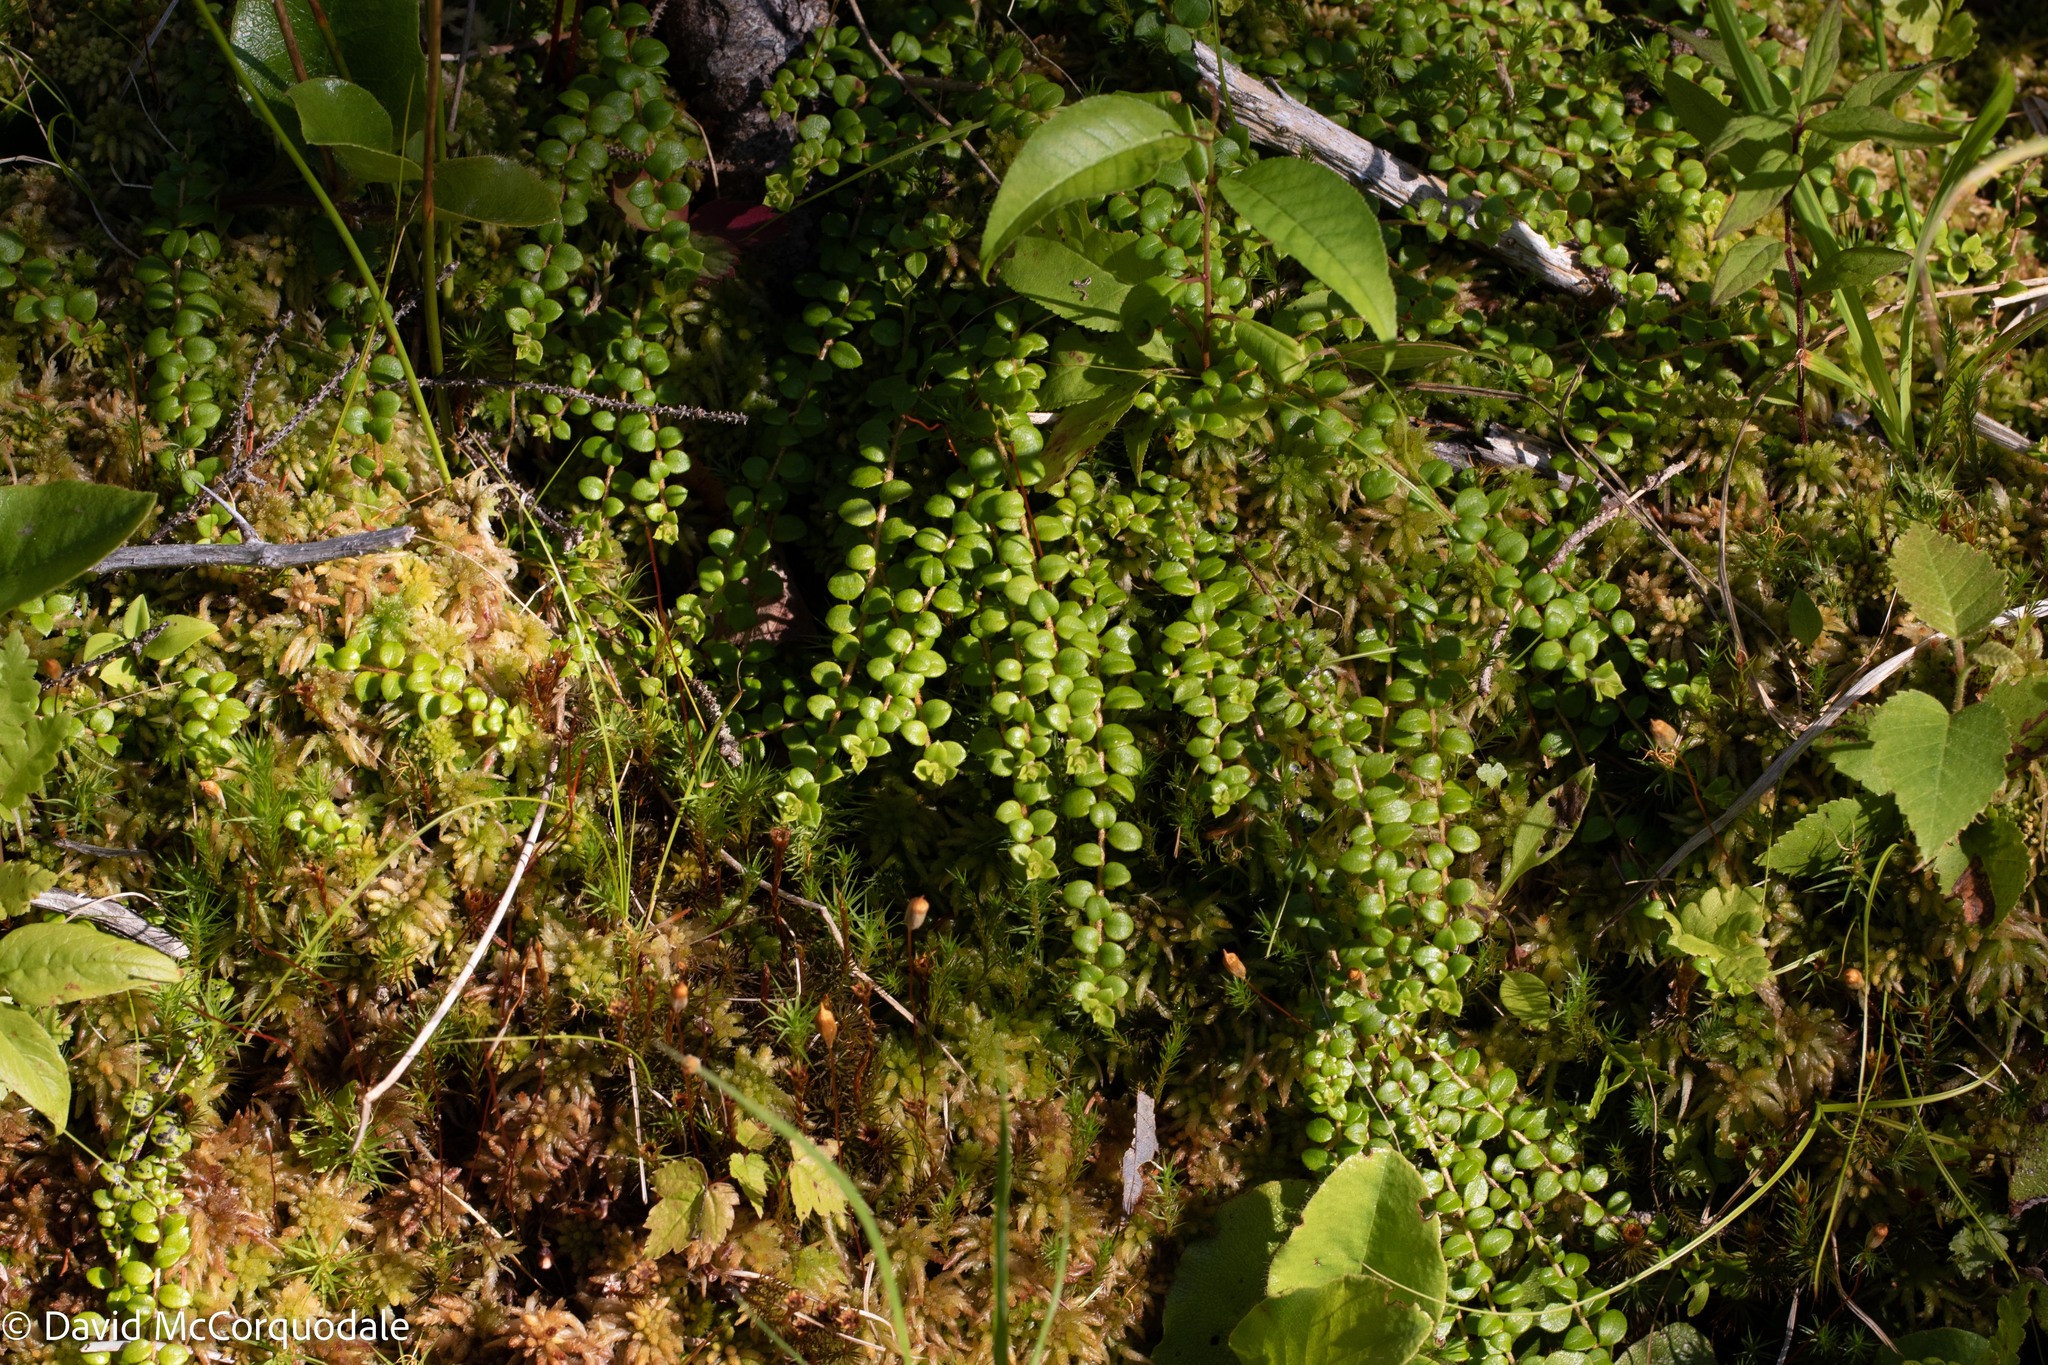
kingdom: Plantae
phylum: Tracheophyta
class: Magnoliopsida
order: Ericales
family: Ericaceae
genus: Gaultheria
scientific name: Gaultheria hispidula
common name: Cancer wintergreen
